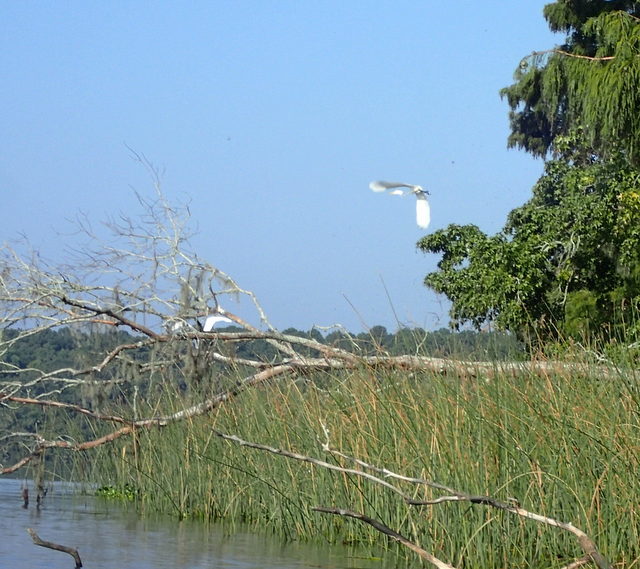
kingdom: Animalia
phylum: Chordata
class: Aves
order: Pelecaniformes
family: Ardeidae
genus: Ardea
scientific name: Ardea alba
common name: Great egret
